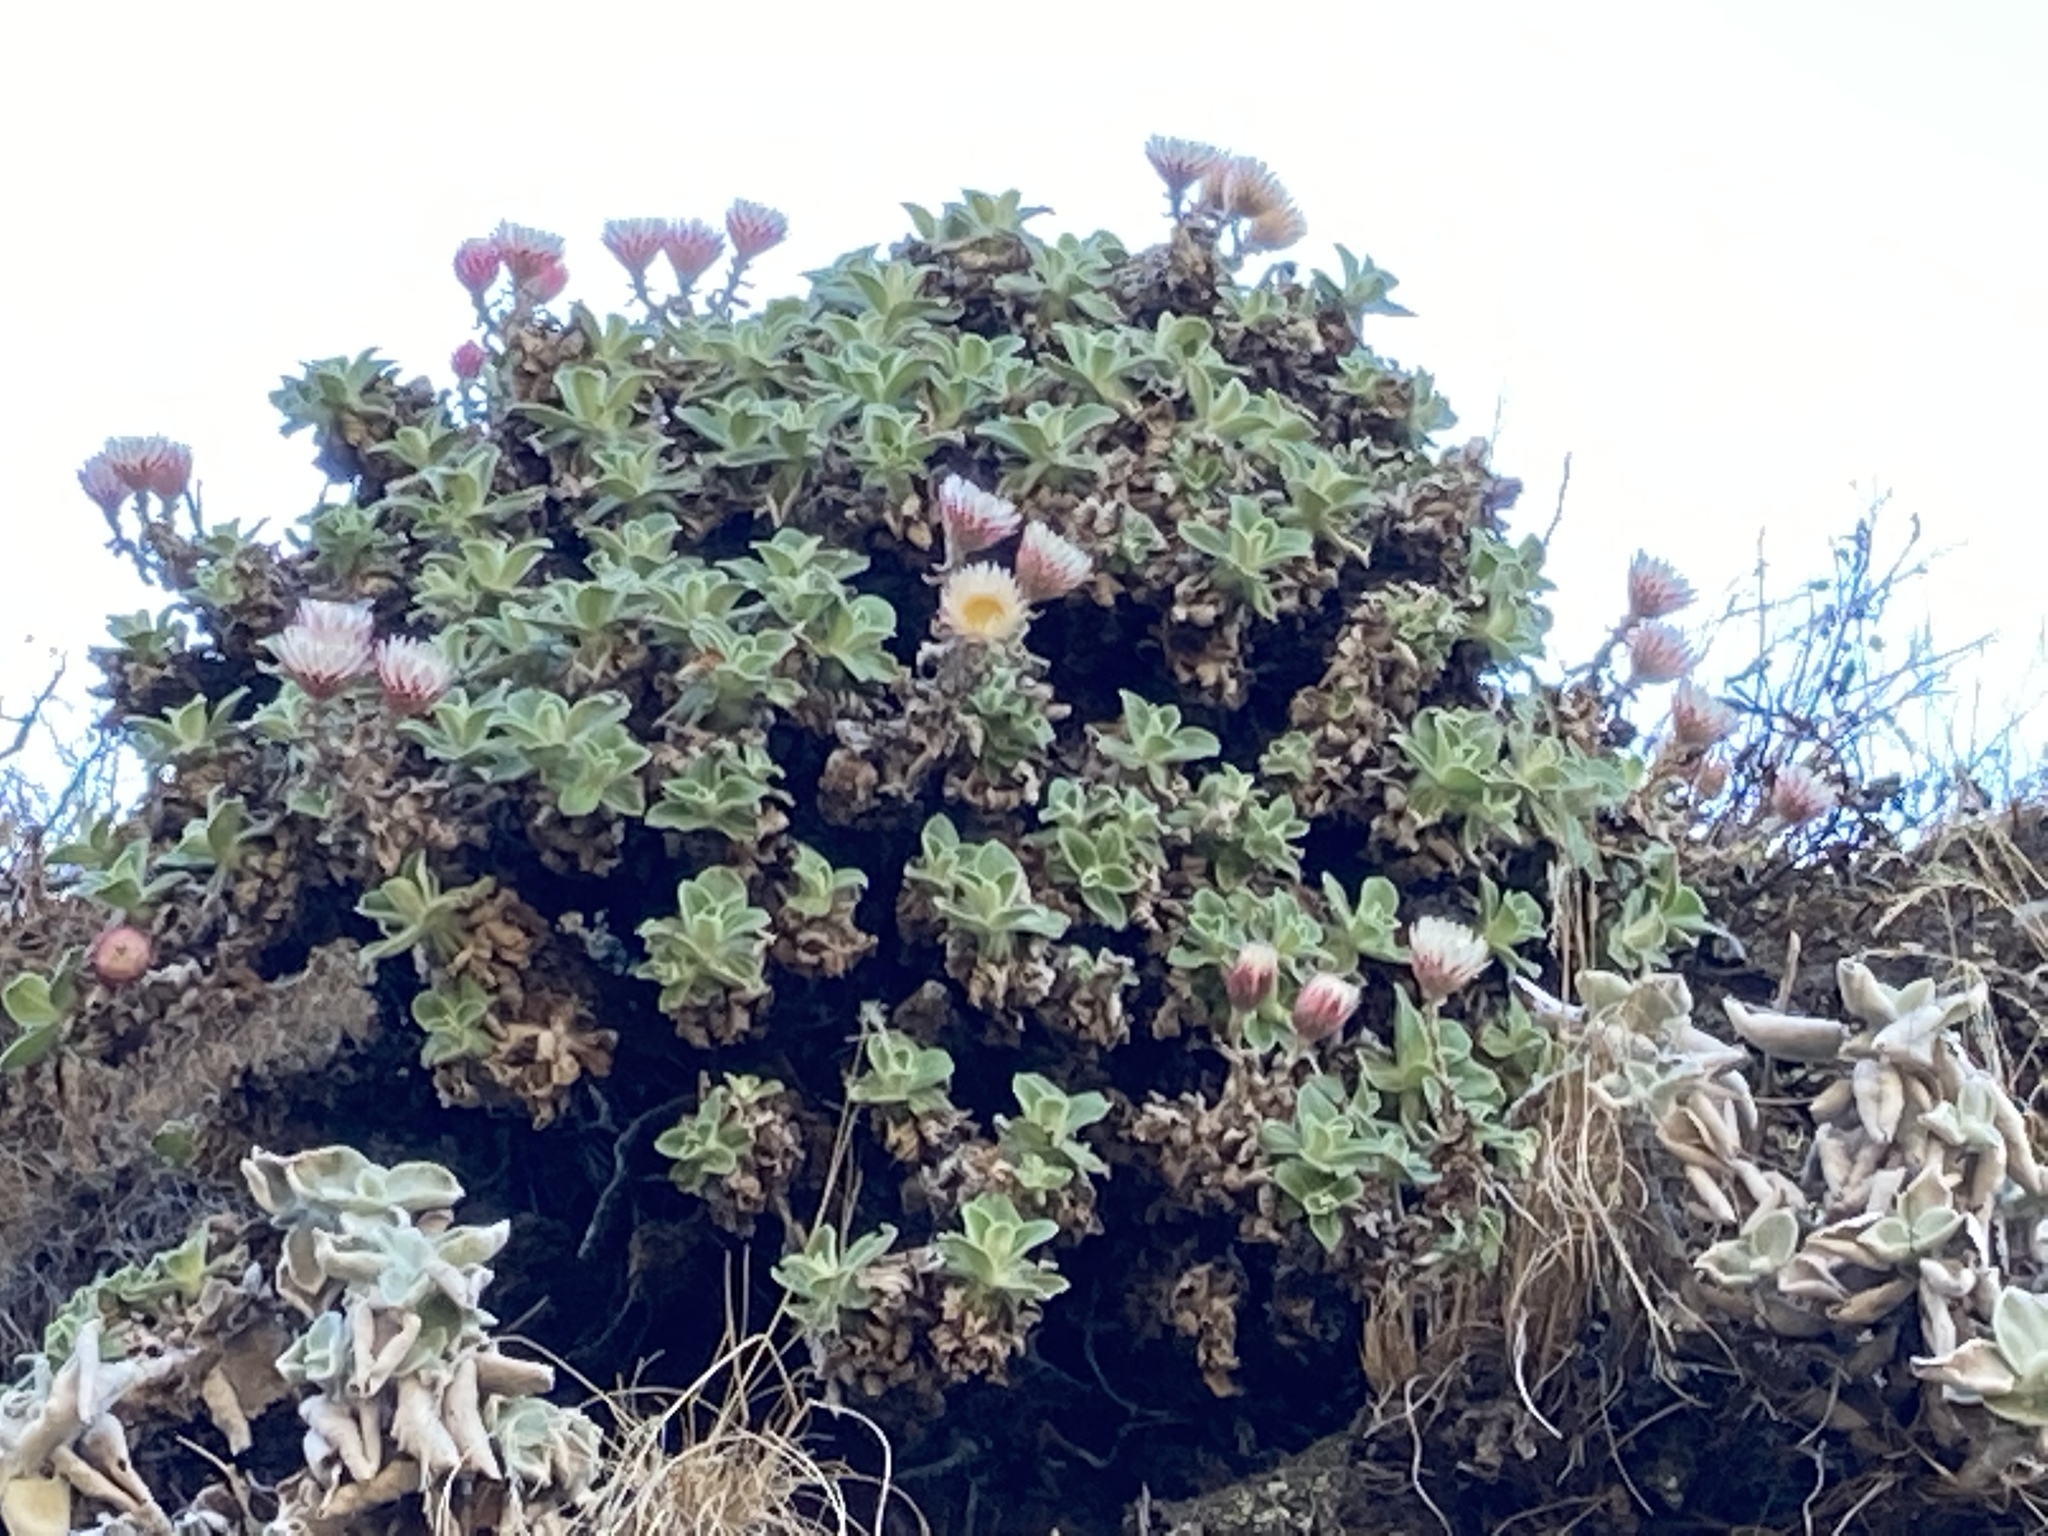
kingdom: Plantae
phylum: Tracheophyta
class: Magnoliopsida
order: Asterales
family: Asteraceae
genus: Helichrysum
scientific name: Helichrysum summo-montanum
